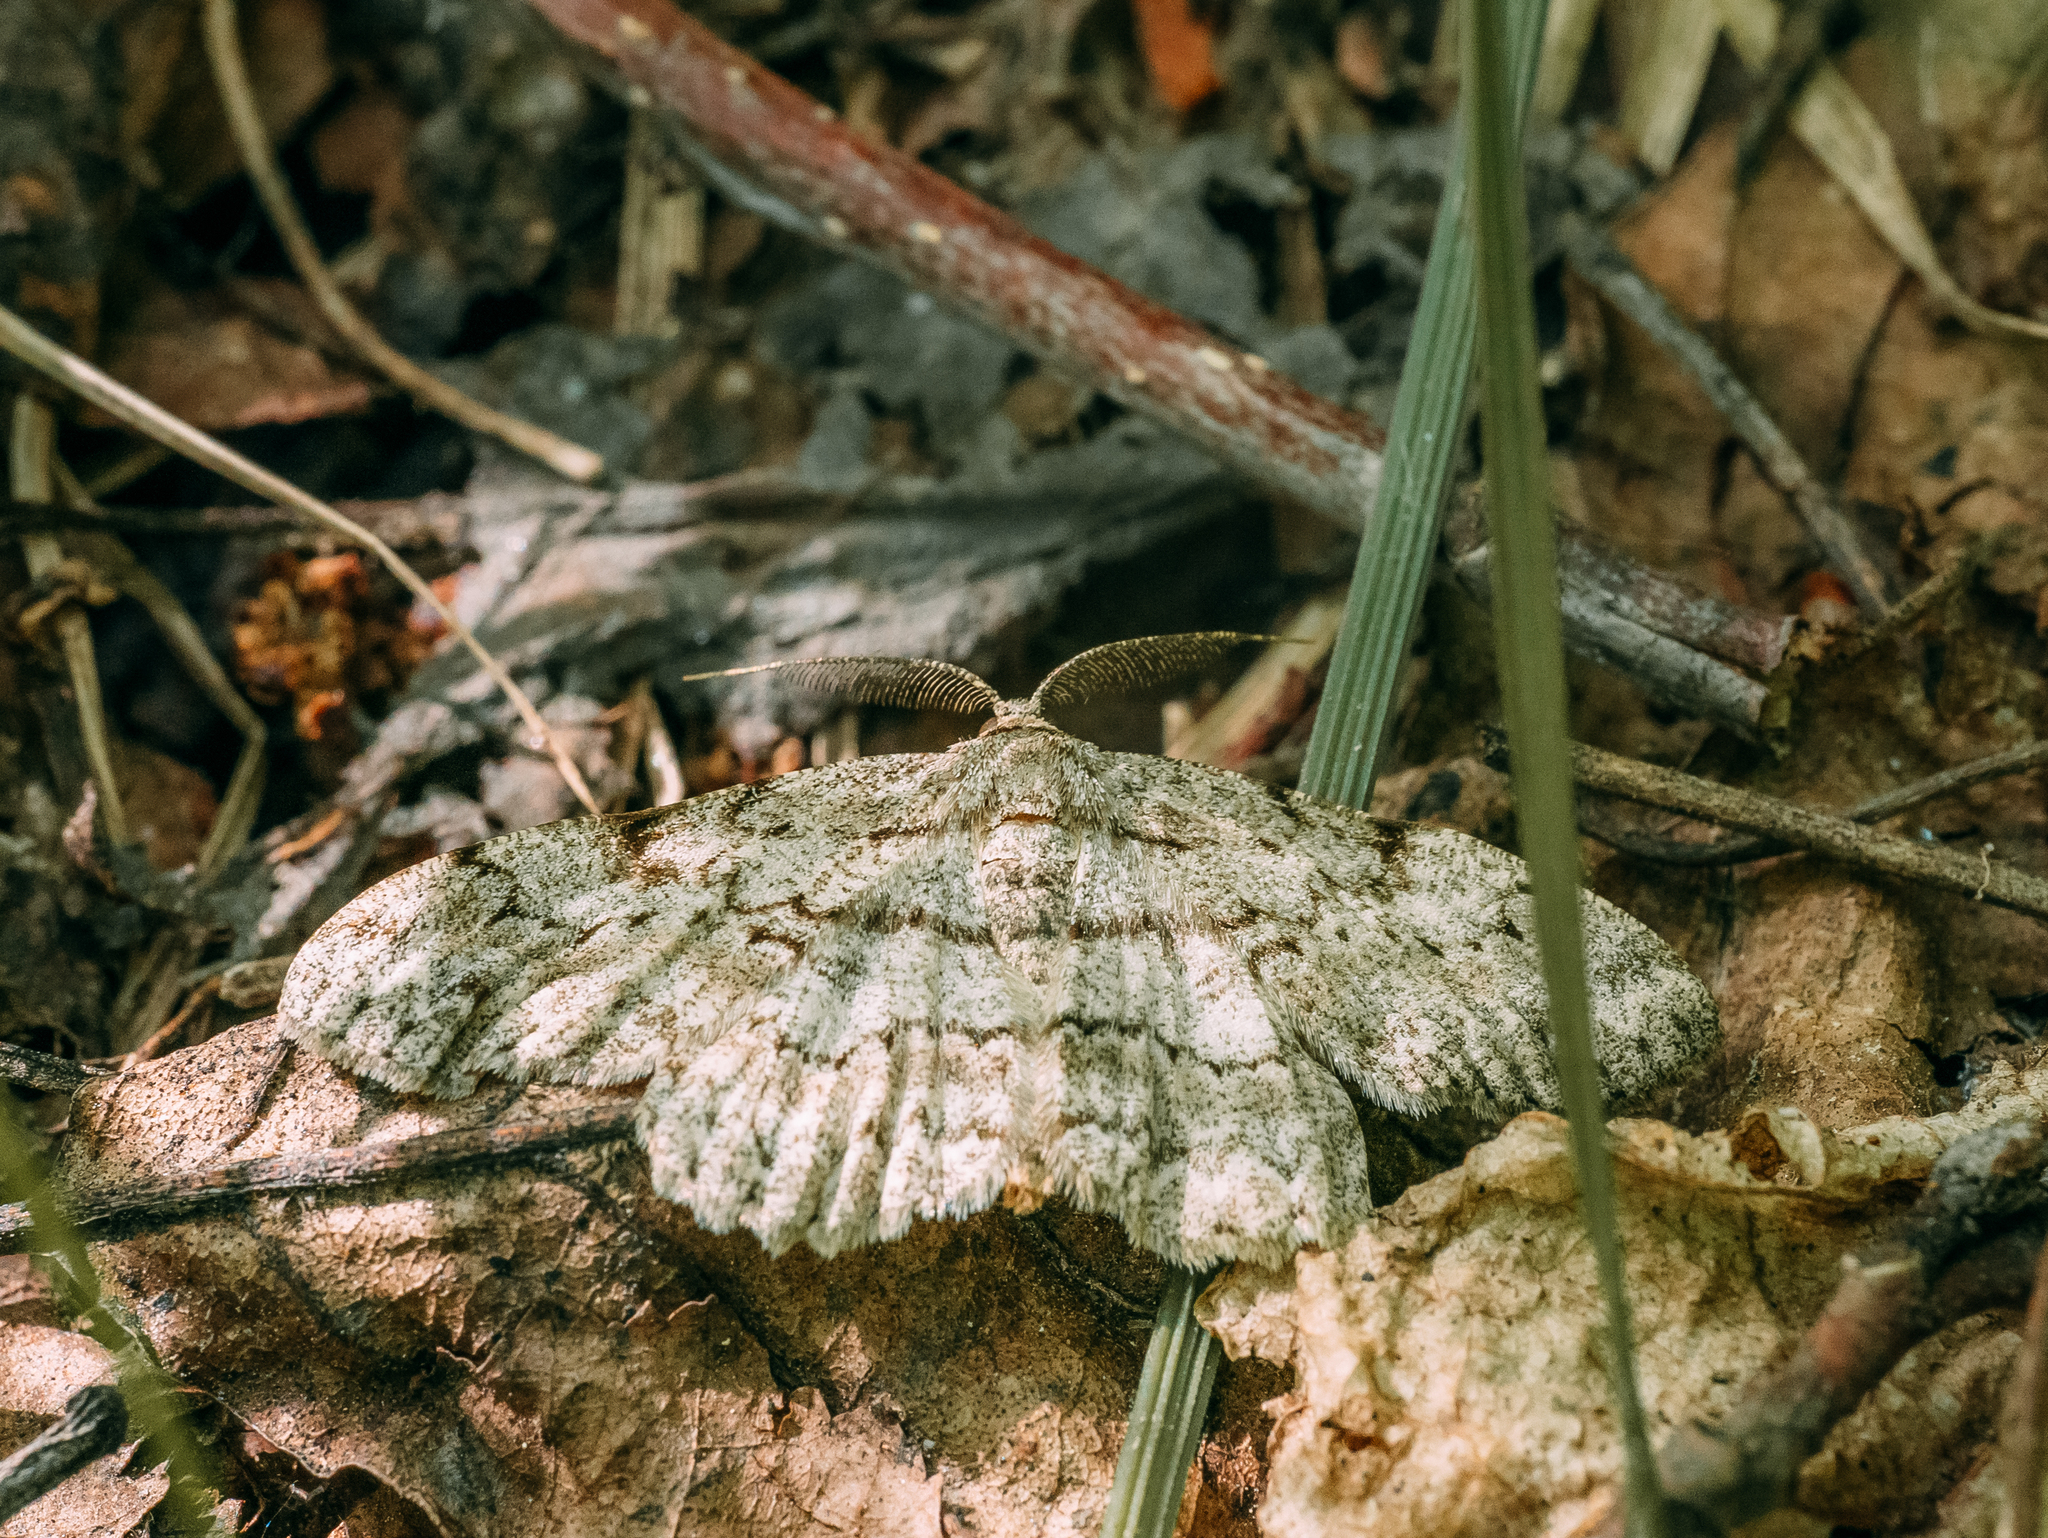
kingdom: Animalia
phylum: Arthropoda
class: Insecta
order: Lepidoptera
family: Geometridae
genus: Hypomecis
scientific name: Hypomecis punctinalis
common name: Pale oak beauty
